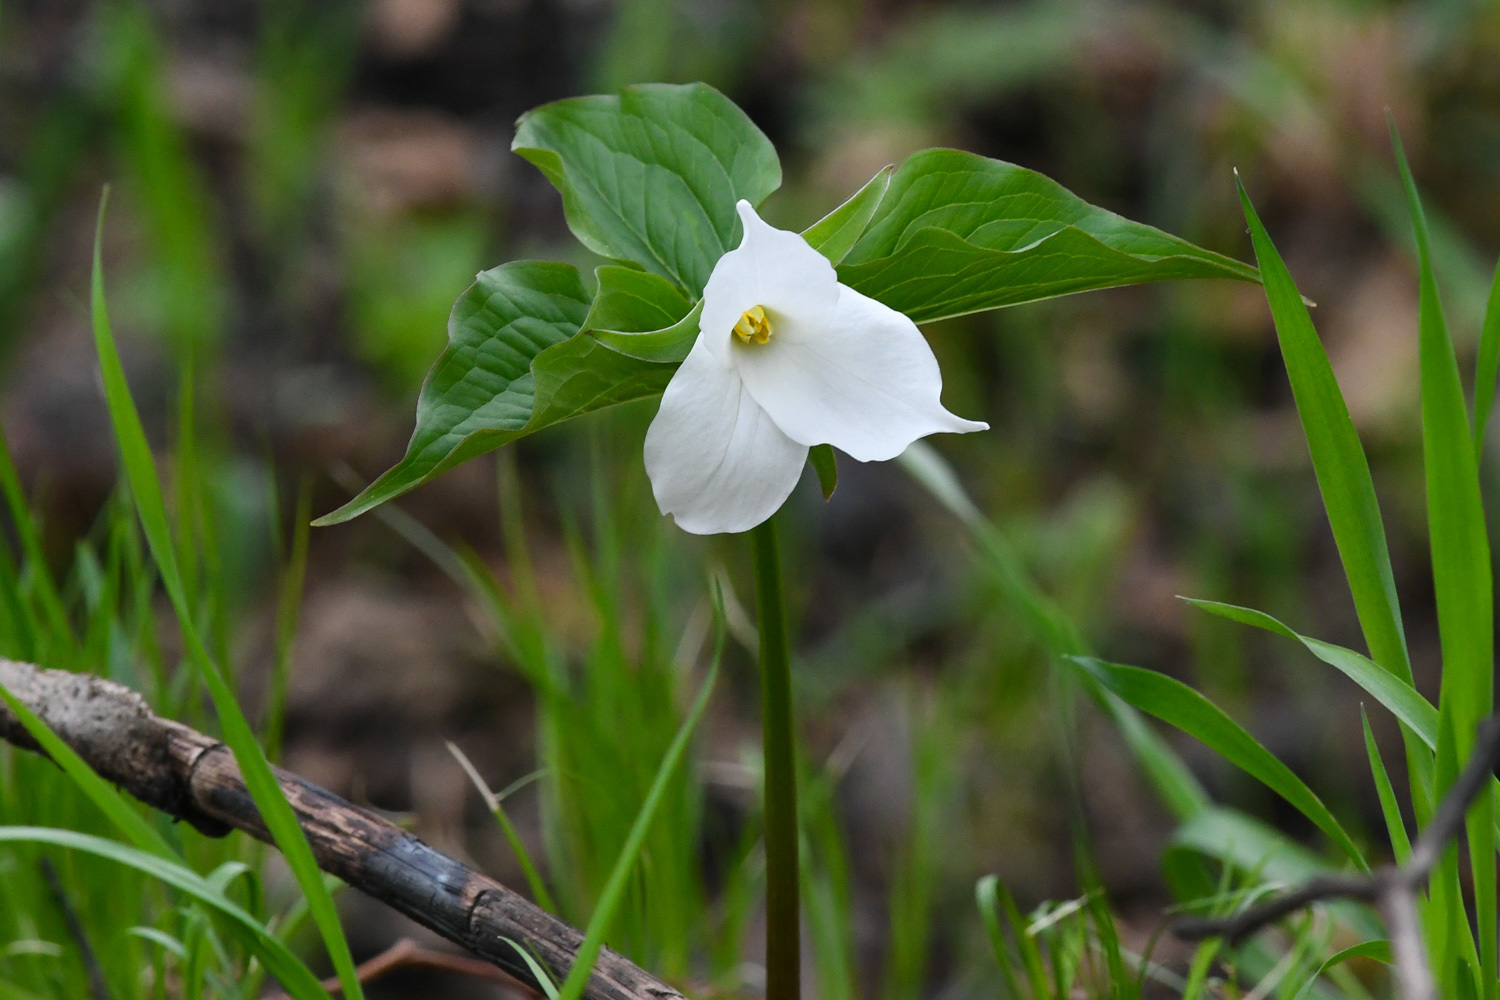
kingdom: Plantae
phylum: Tracheophyta
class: Liliopsida
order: Liliales
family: Melanthiaceae
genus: Trillium
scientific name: Trillium grandiflorum
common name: Great white trillium
